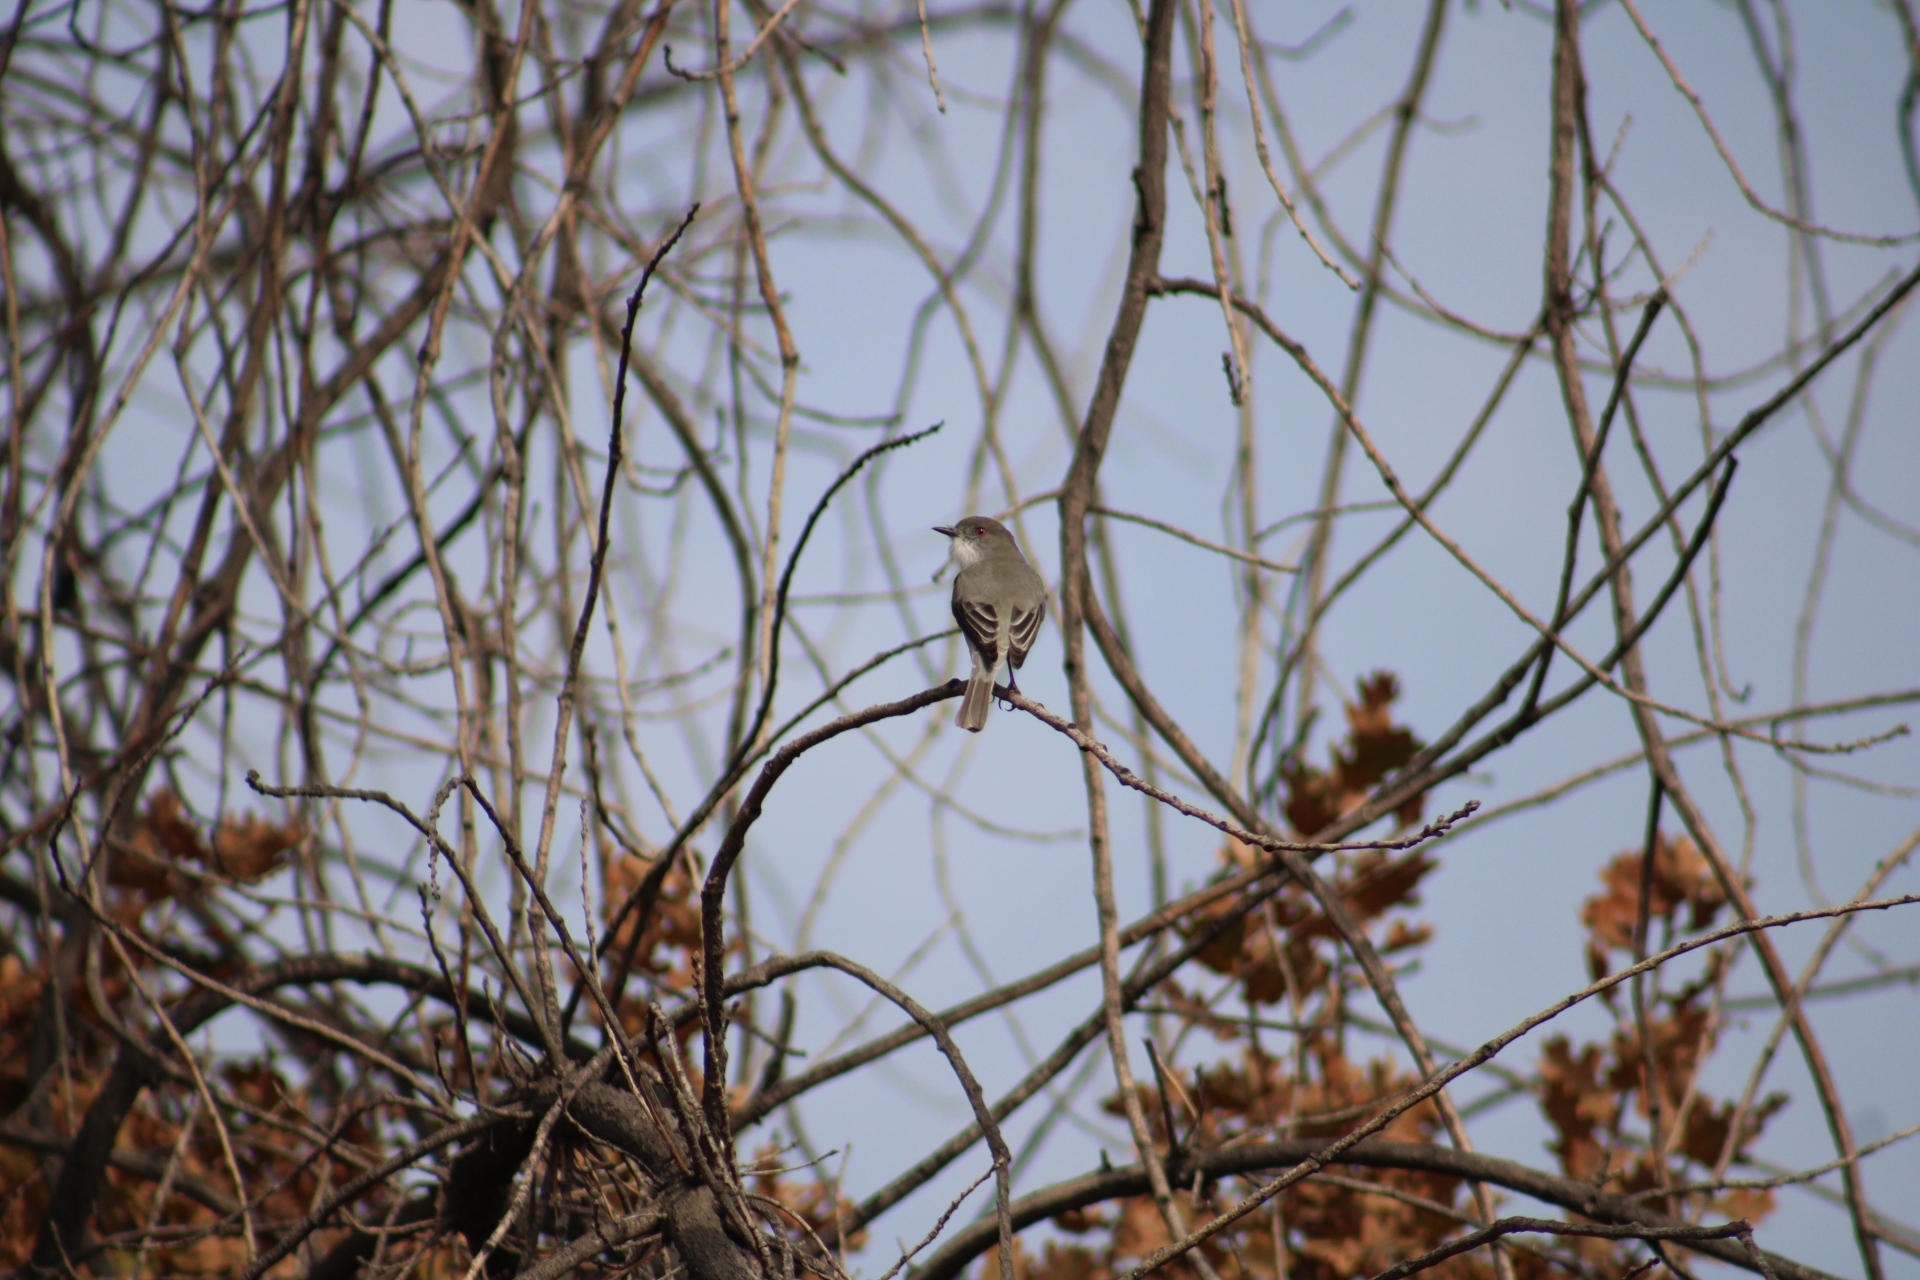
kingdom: Animalia
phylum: Chordata
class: Aves
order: Passeriformes
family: Tyrannidae
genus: Xolmis
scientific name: Xolmis pyrope
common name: Fire-eyed diucon
